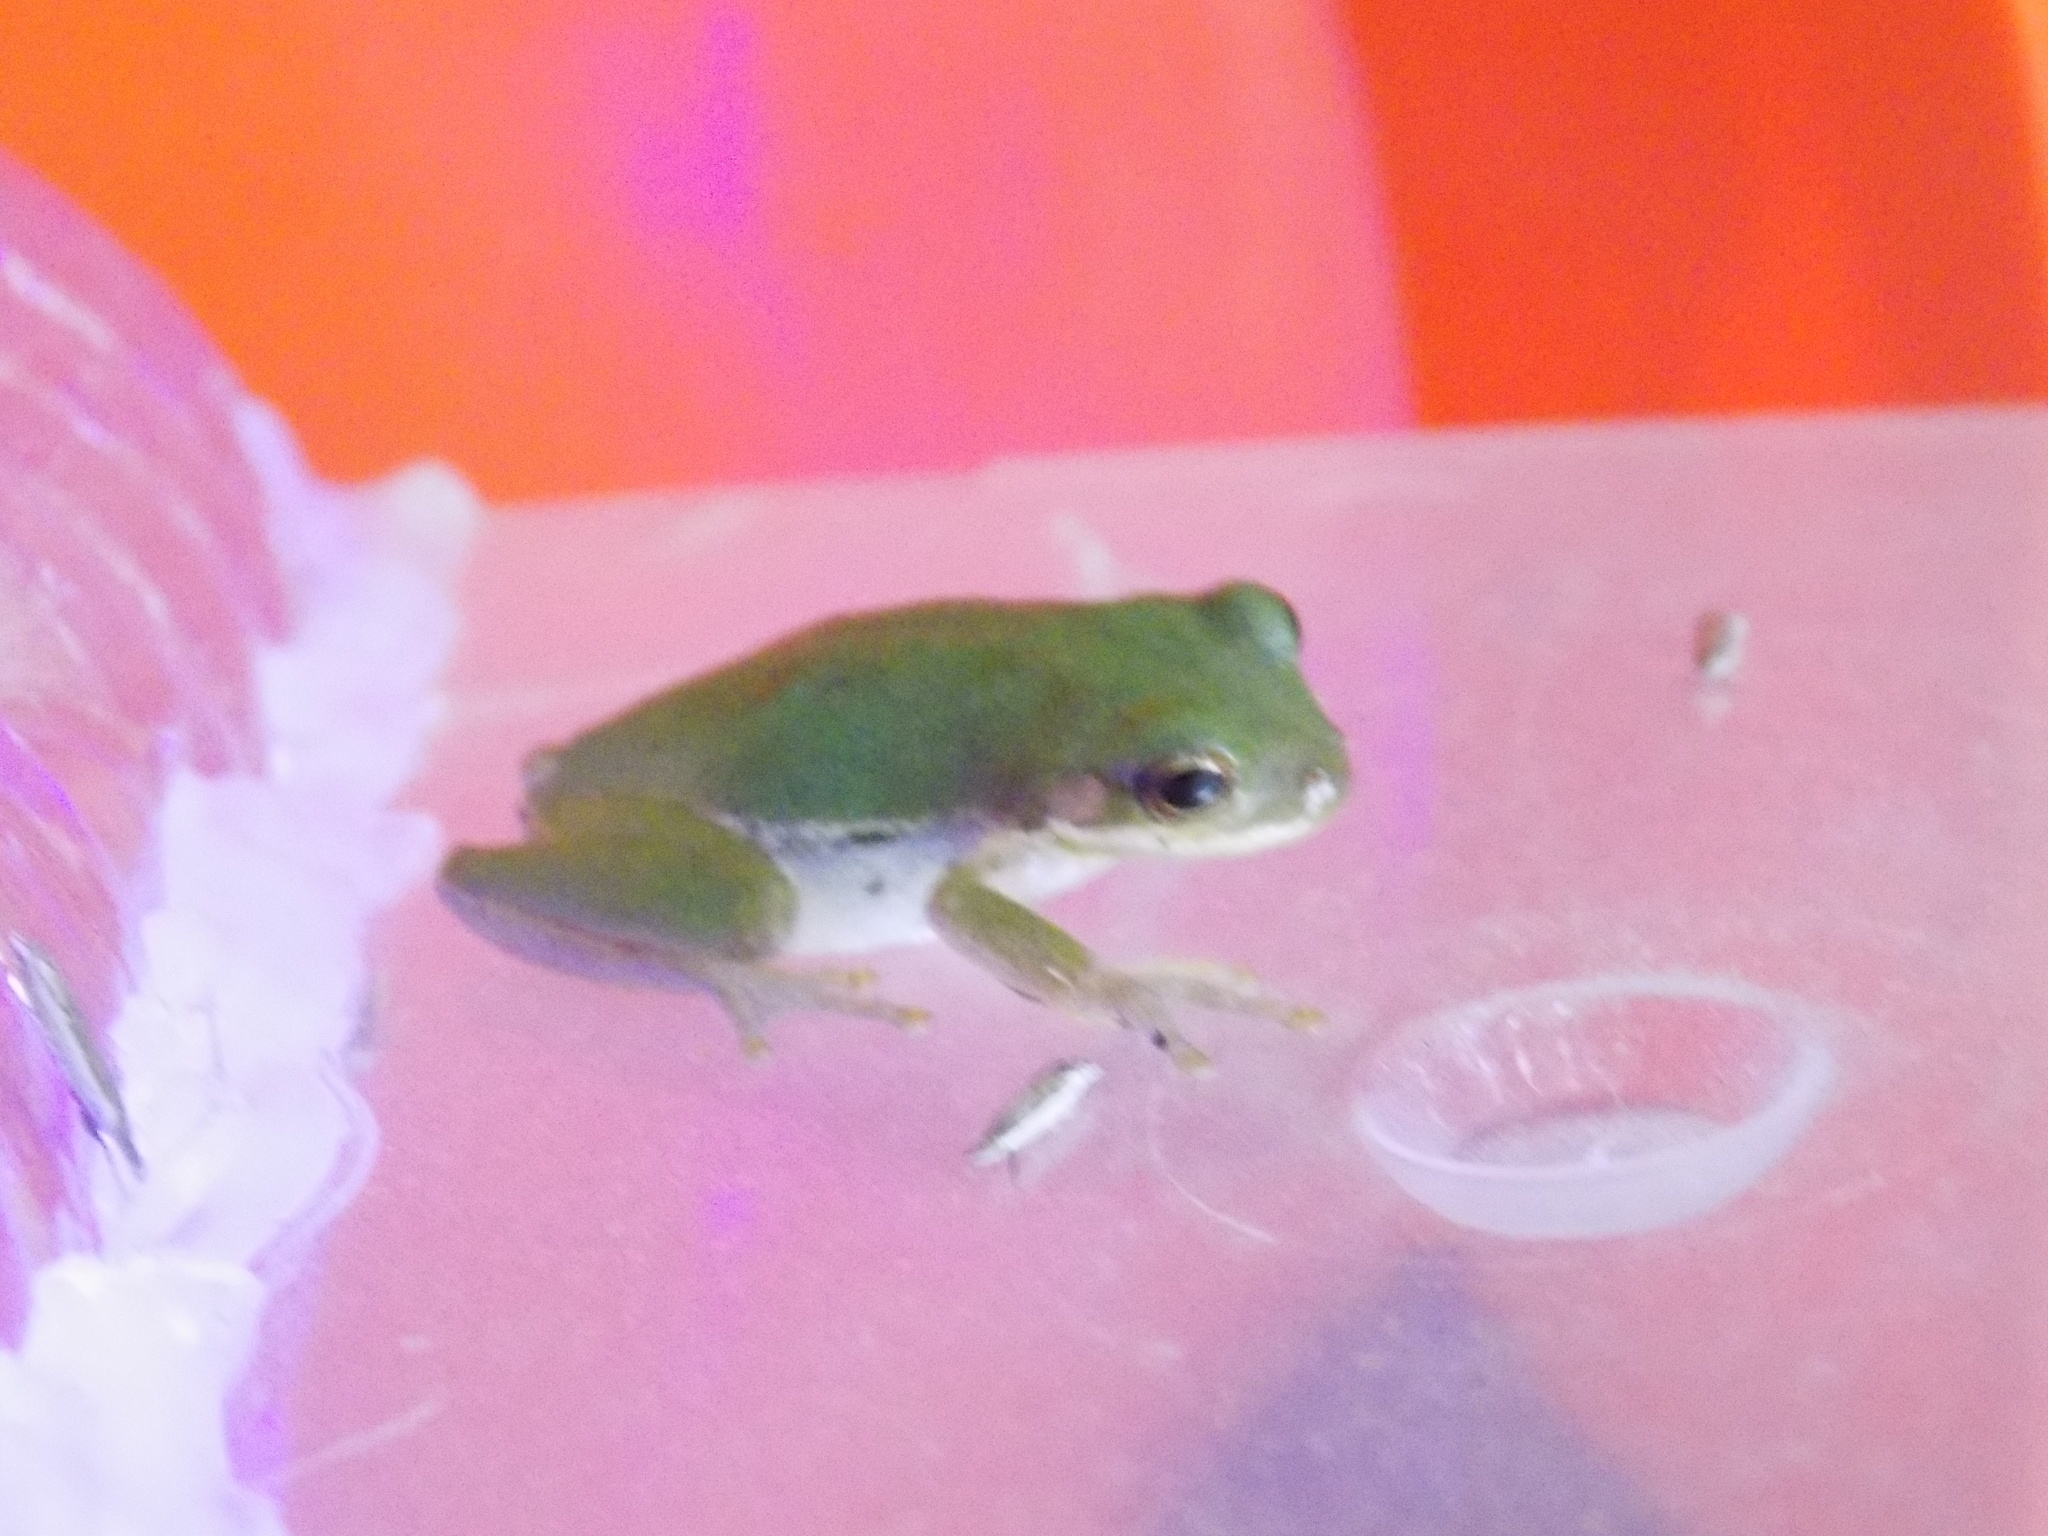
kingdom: Animalia
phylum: Chordata
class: Amphibia
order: Anura
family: Hylidae
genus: Dryophytes
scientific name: Dryophytes squirellus
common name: Squirrel treefrog
